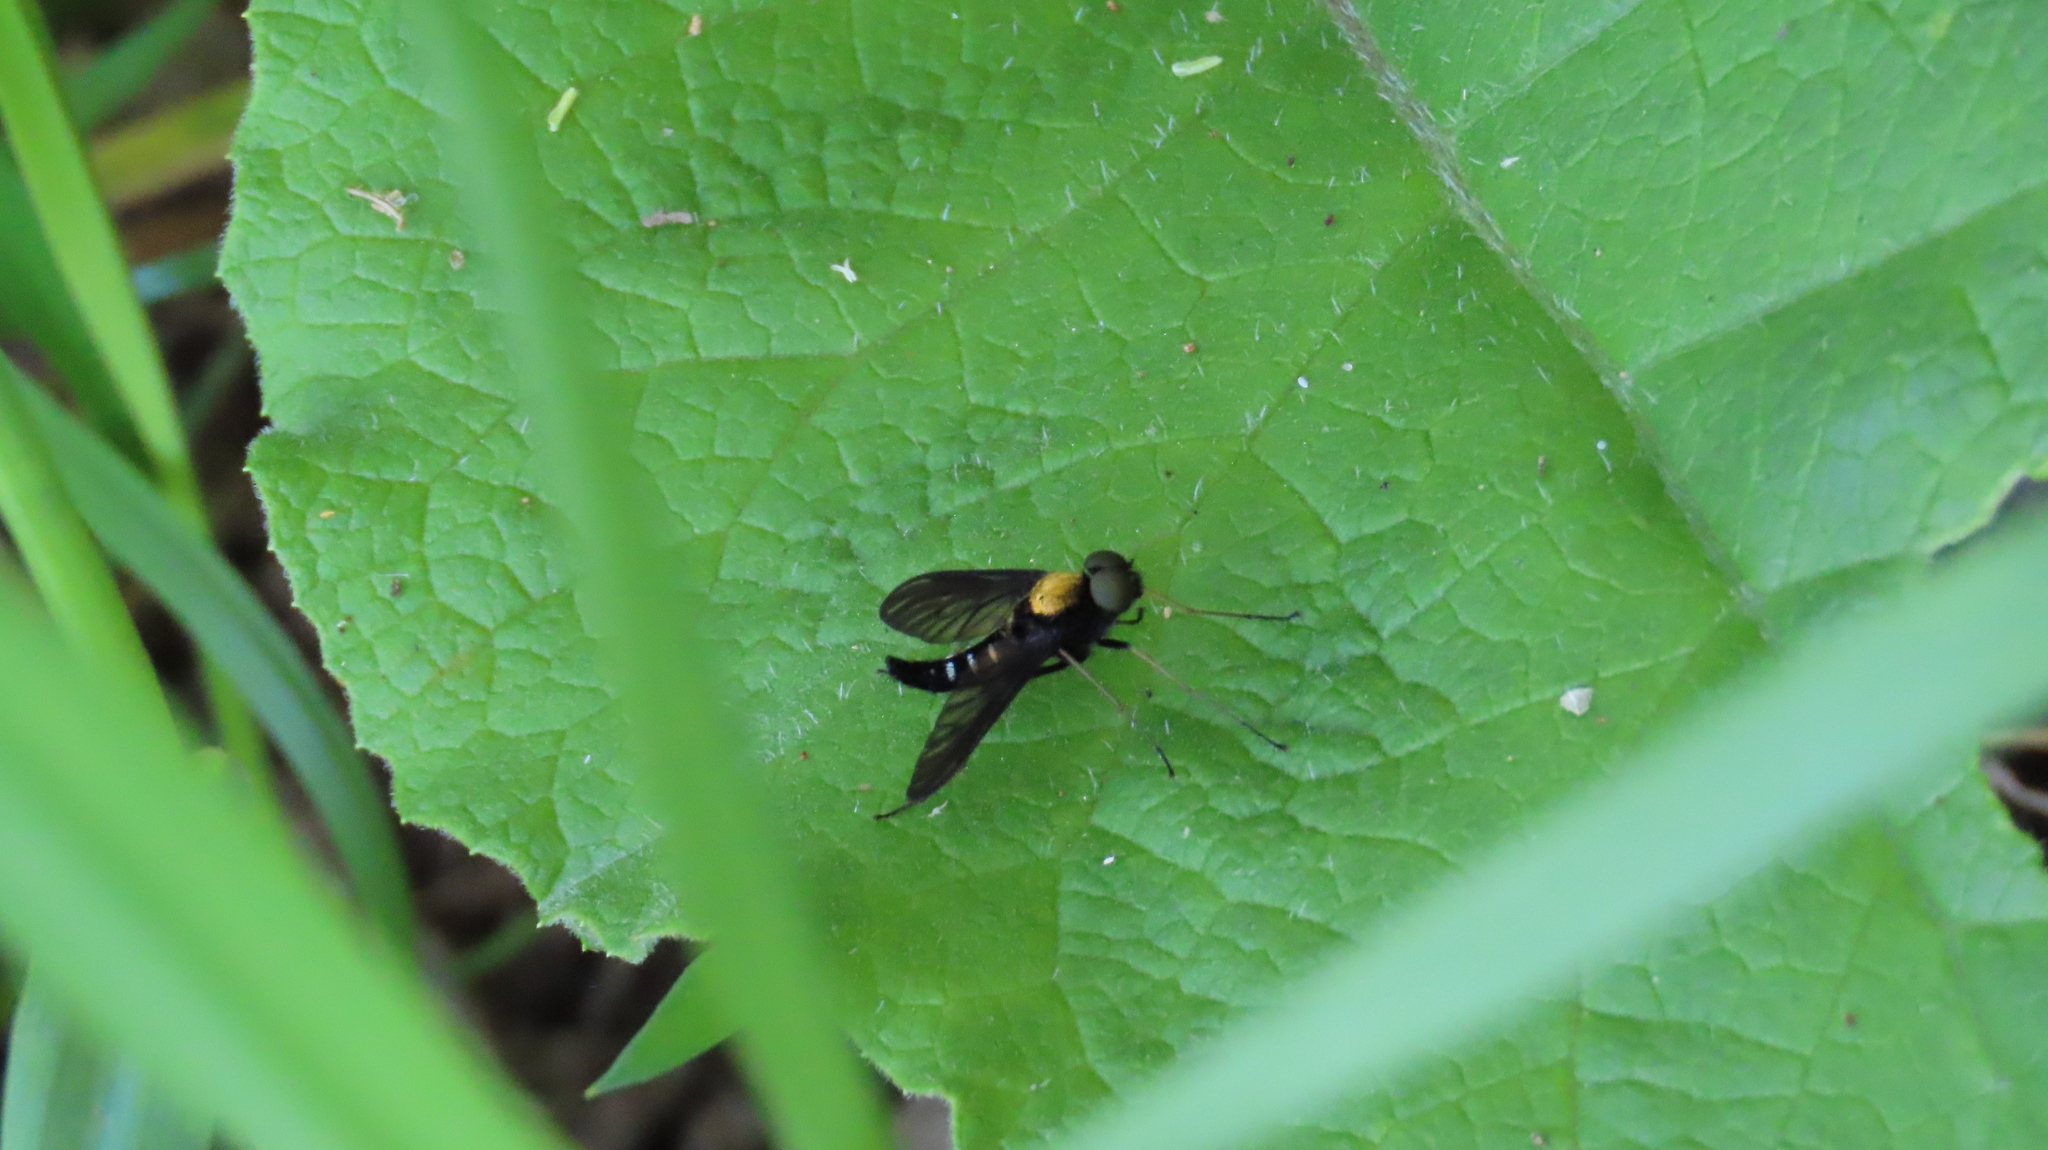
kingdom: Animalia
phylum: Arthropoda
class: Insecta
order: Diptera
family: Rhagionidae
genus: Chrysopilus
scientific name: Chrysopilus thoracicus
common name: Golden-backed snipe fly
